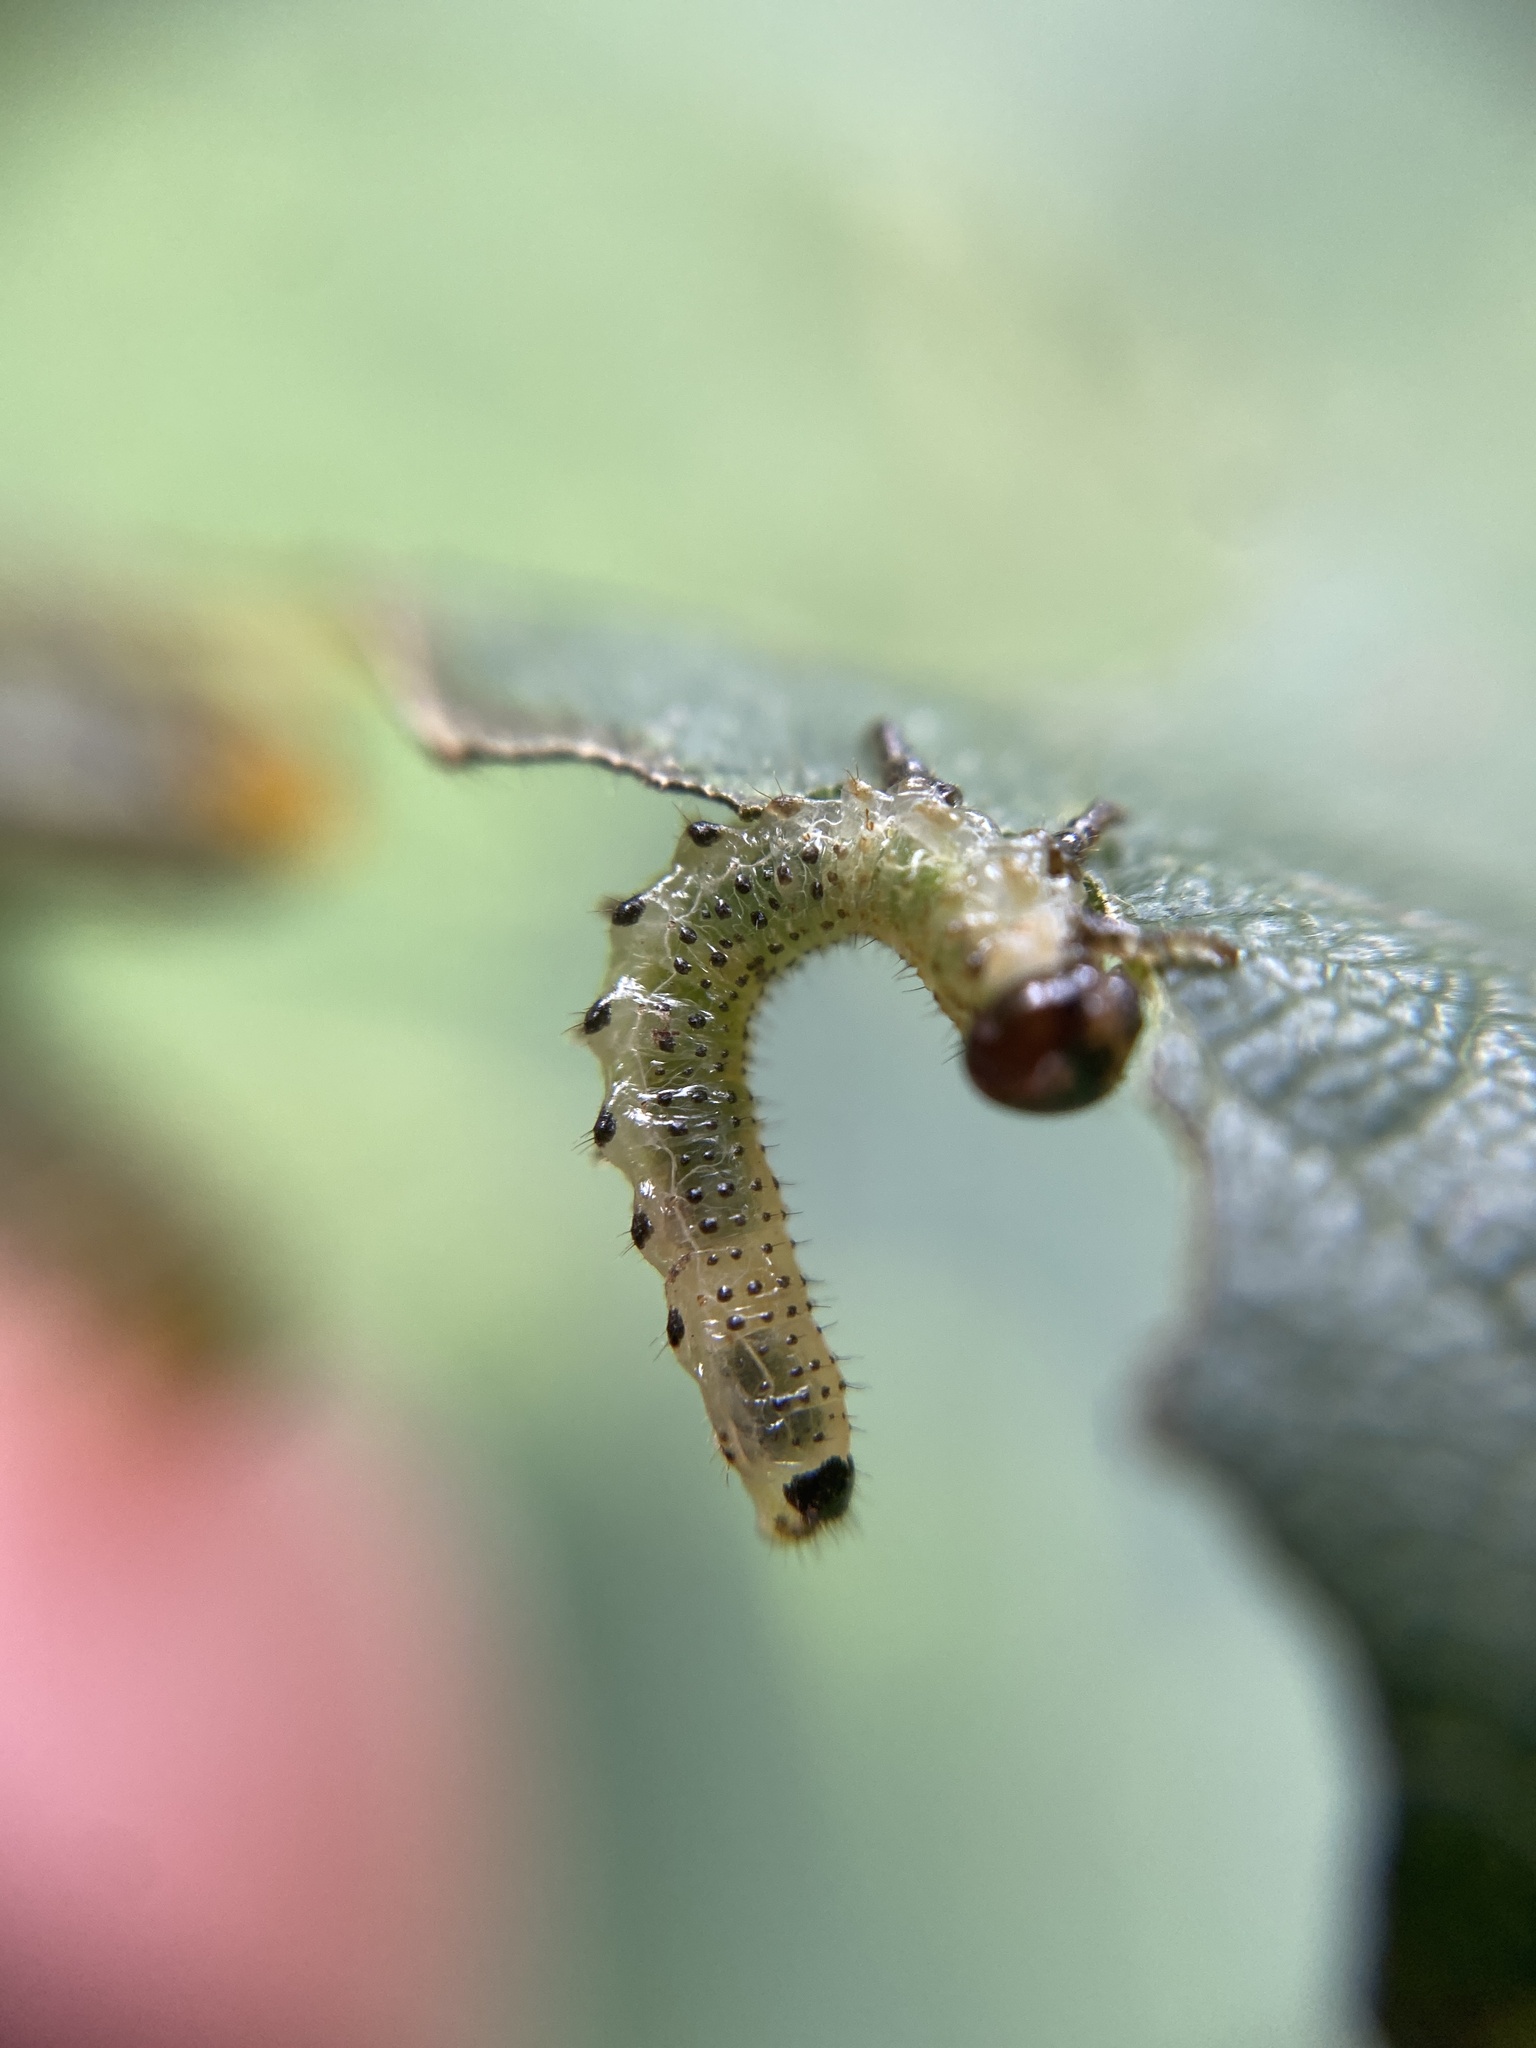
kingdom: Animalia
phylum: Arthropoda
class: Insecta
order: Hymenoptera
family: Argidae
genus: Arge
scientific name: Arge pagana
